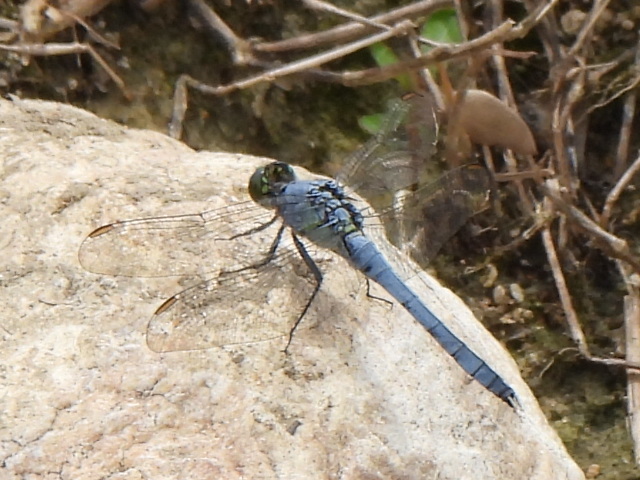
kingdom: Animalia
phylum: Arthropoda
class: Insecta
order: Odonata
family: Libellulidae
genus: Erythemis
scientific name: Erythemis simplicicollis
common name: Eastern pondhawk
